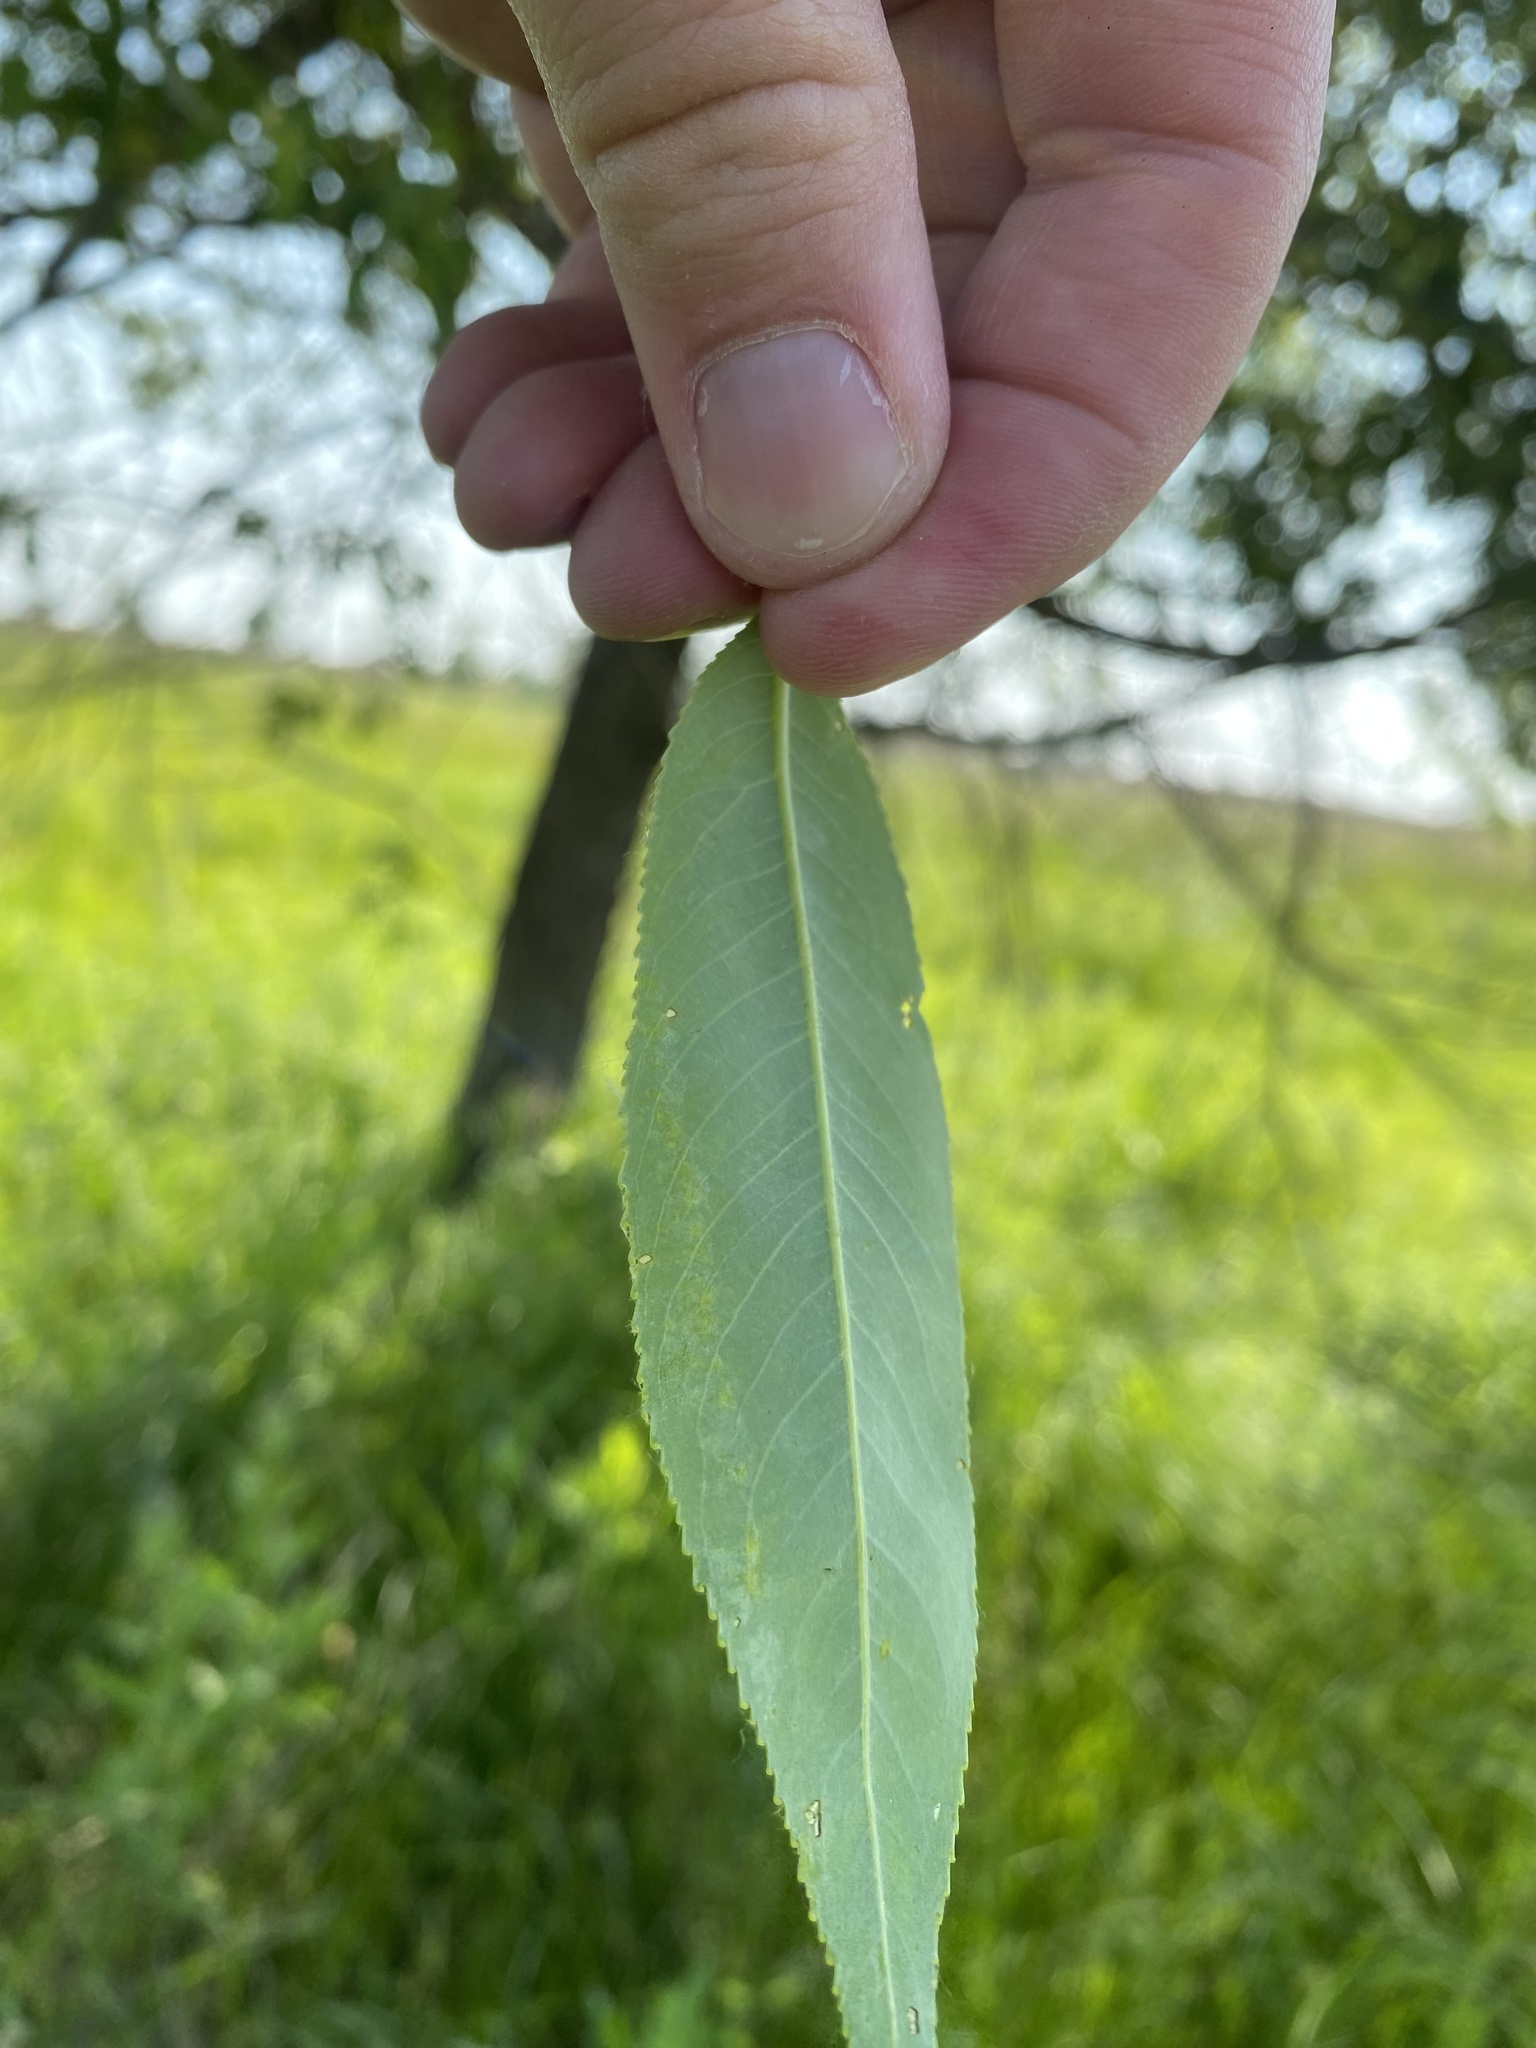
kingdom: Plantae
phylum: Tracheophyta
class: Magnoliopsida
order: Malpighiales
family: Salicaceae
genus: Salix
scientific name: Salix amygdaloides
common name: Peach leaf willow
